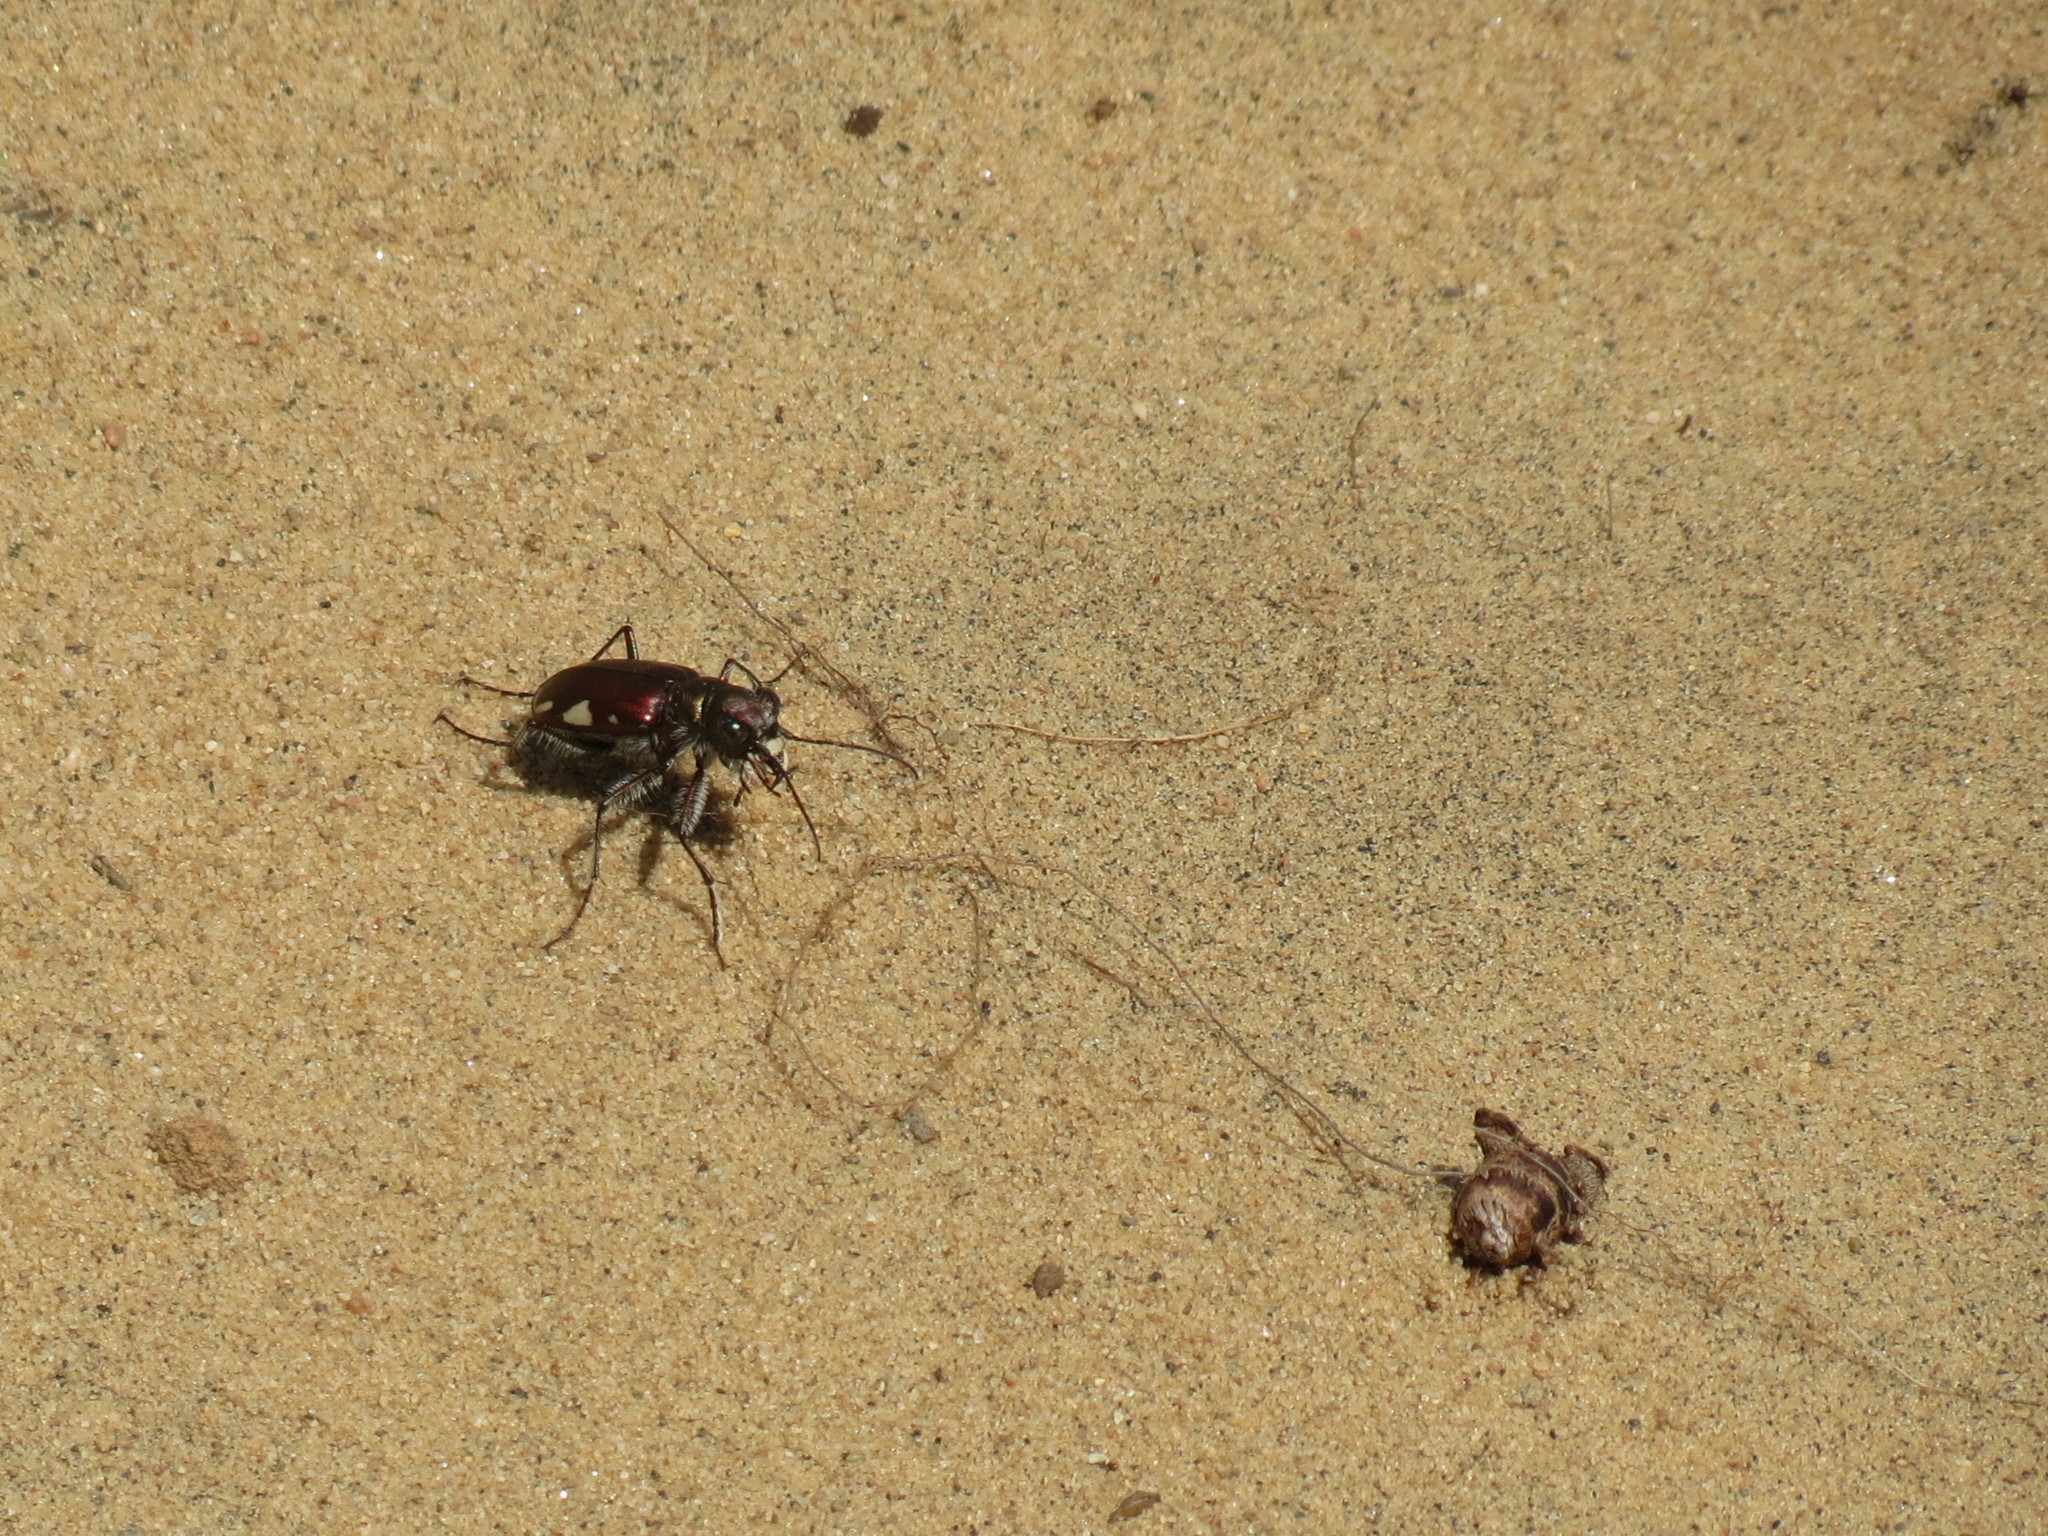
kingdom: Animalia
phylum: Arthropoda
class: Insecta
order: Coleoptera
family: Carabidae
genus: Cicindela
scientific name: Cicindela scutellaris
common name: Festive tiger beetle
